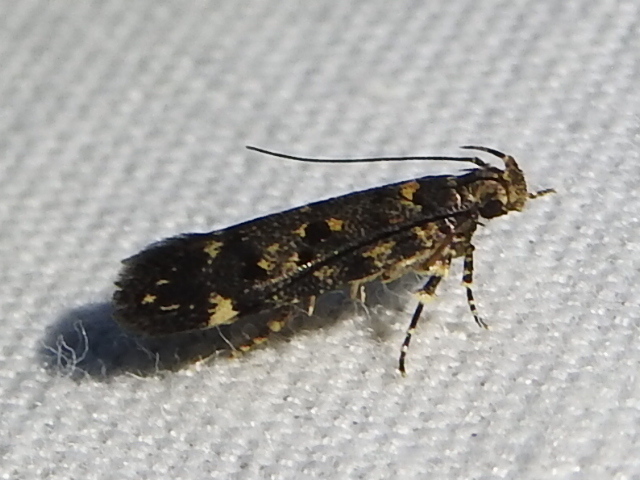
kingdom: Animalia
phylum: Arthropoda
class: Insecta
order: Lepidoptera
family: Gelechiidae
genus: Fascista
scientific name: Fascista cercerisella
